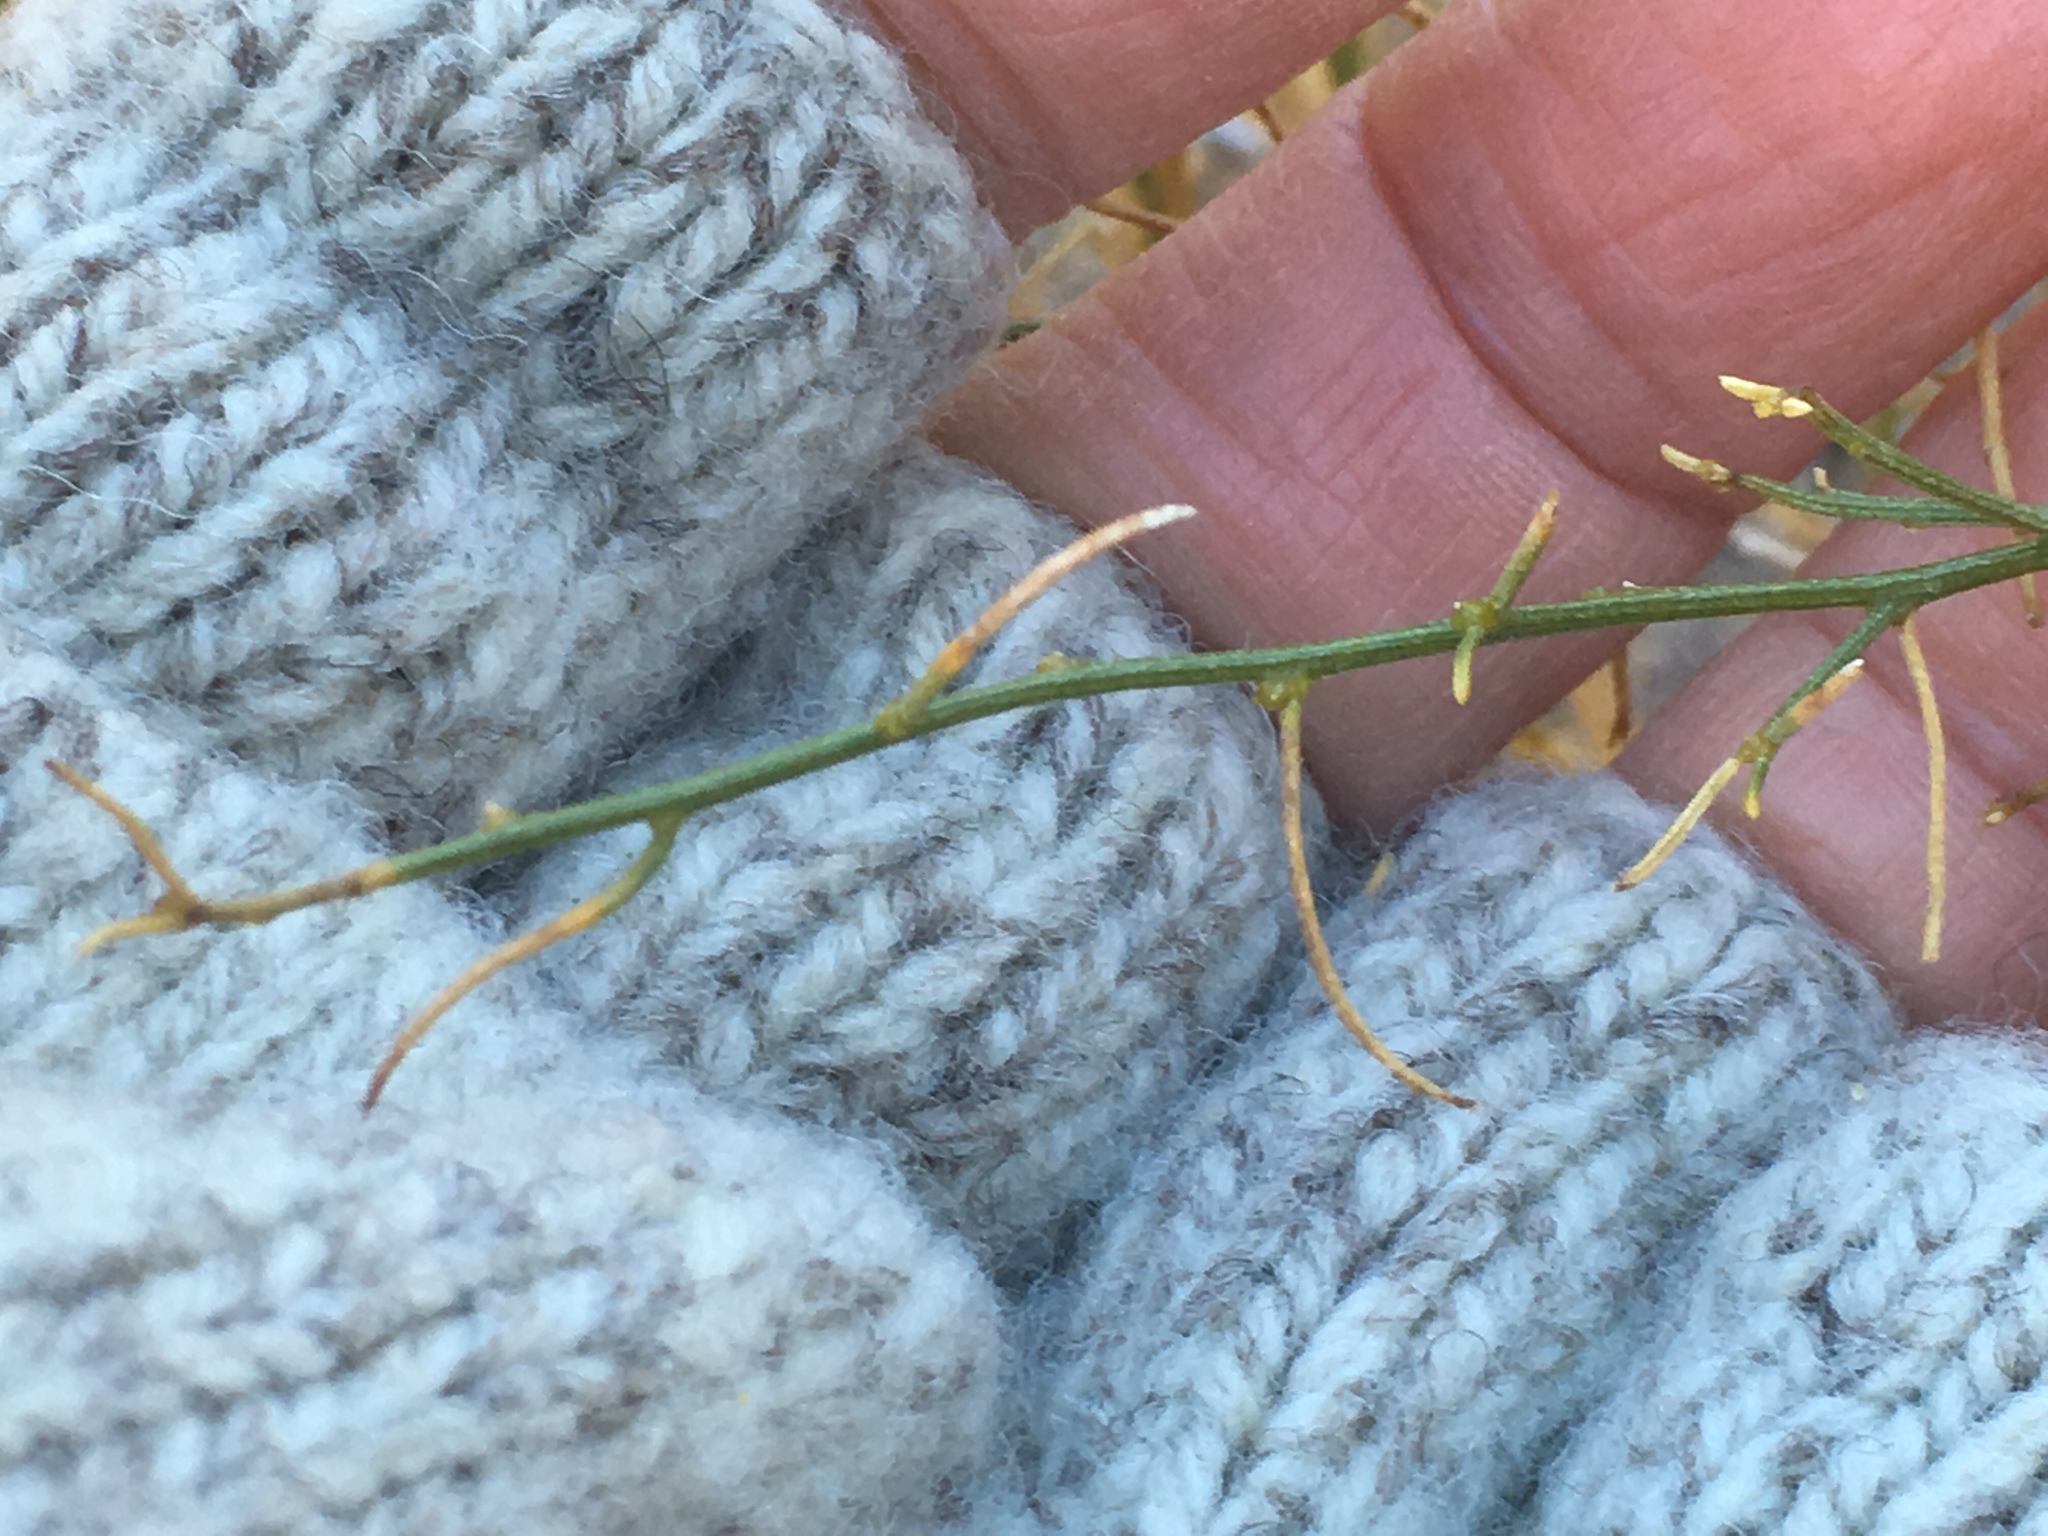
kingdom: Plantae
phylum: Tracheophyta
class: Magnoliopsida
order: Asterales
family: Asteraceae
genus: Ambrosia
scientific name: Ambrosia salsola
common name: Burrobrush
